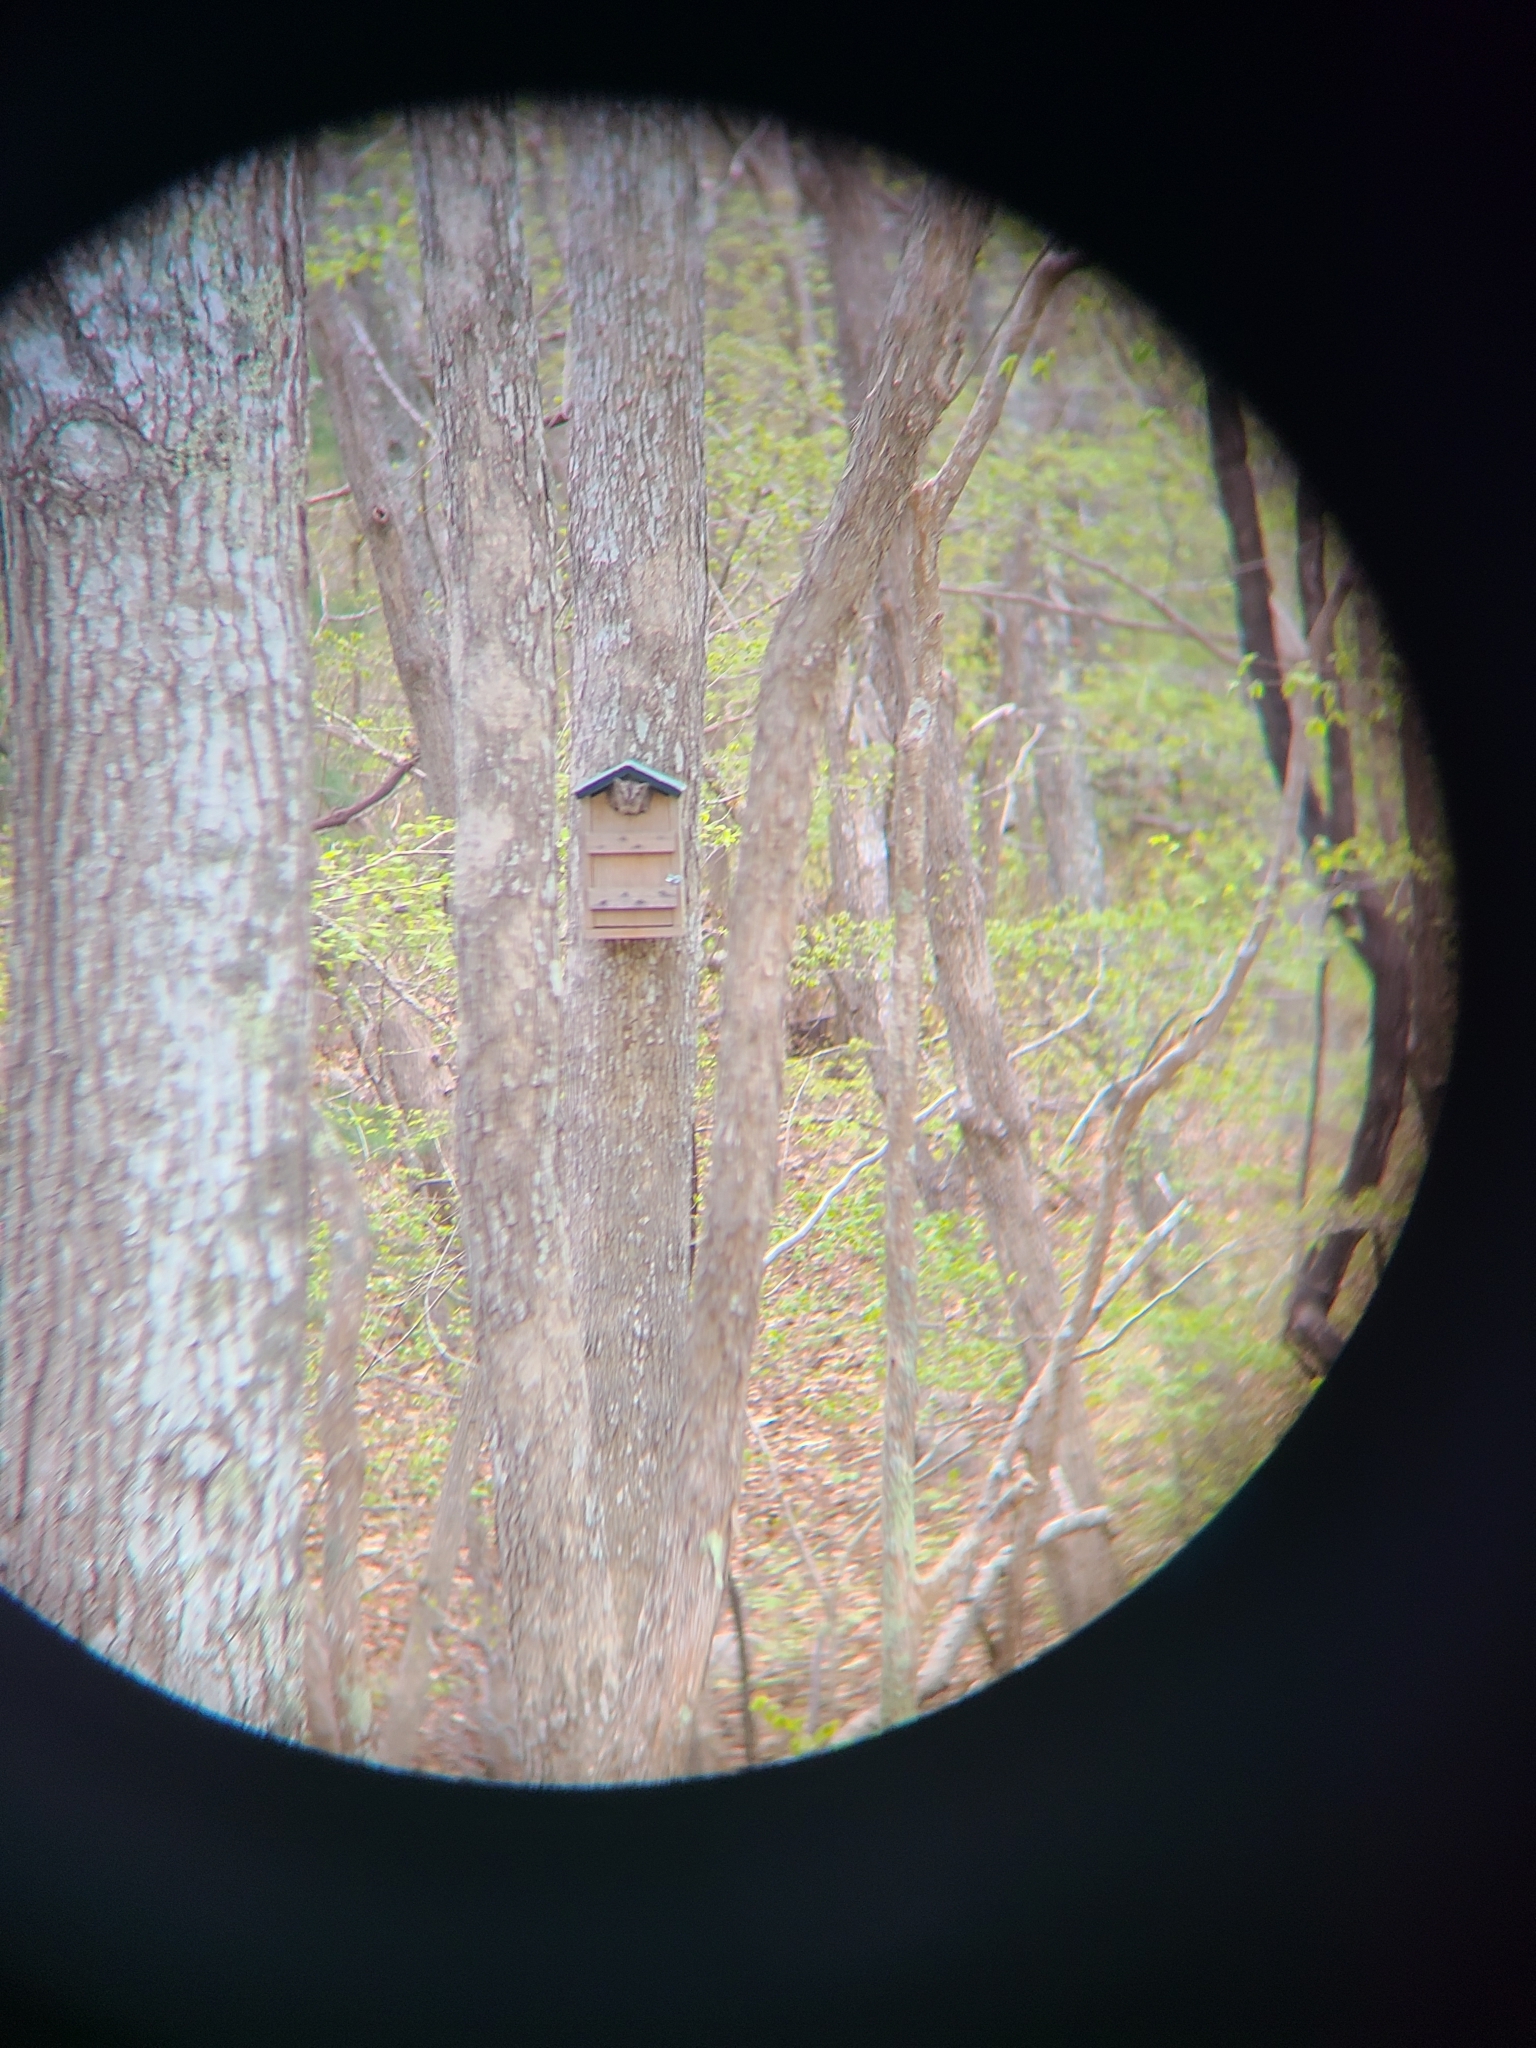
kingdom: Animalia
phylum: Chordata
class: Aves
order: Strigiformes
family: Strigidae
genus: Megascops
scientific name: Megascops asio
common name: Eastern screech-owl
